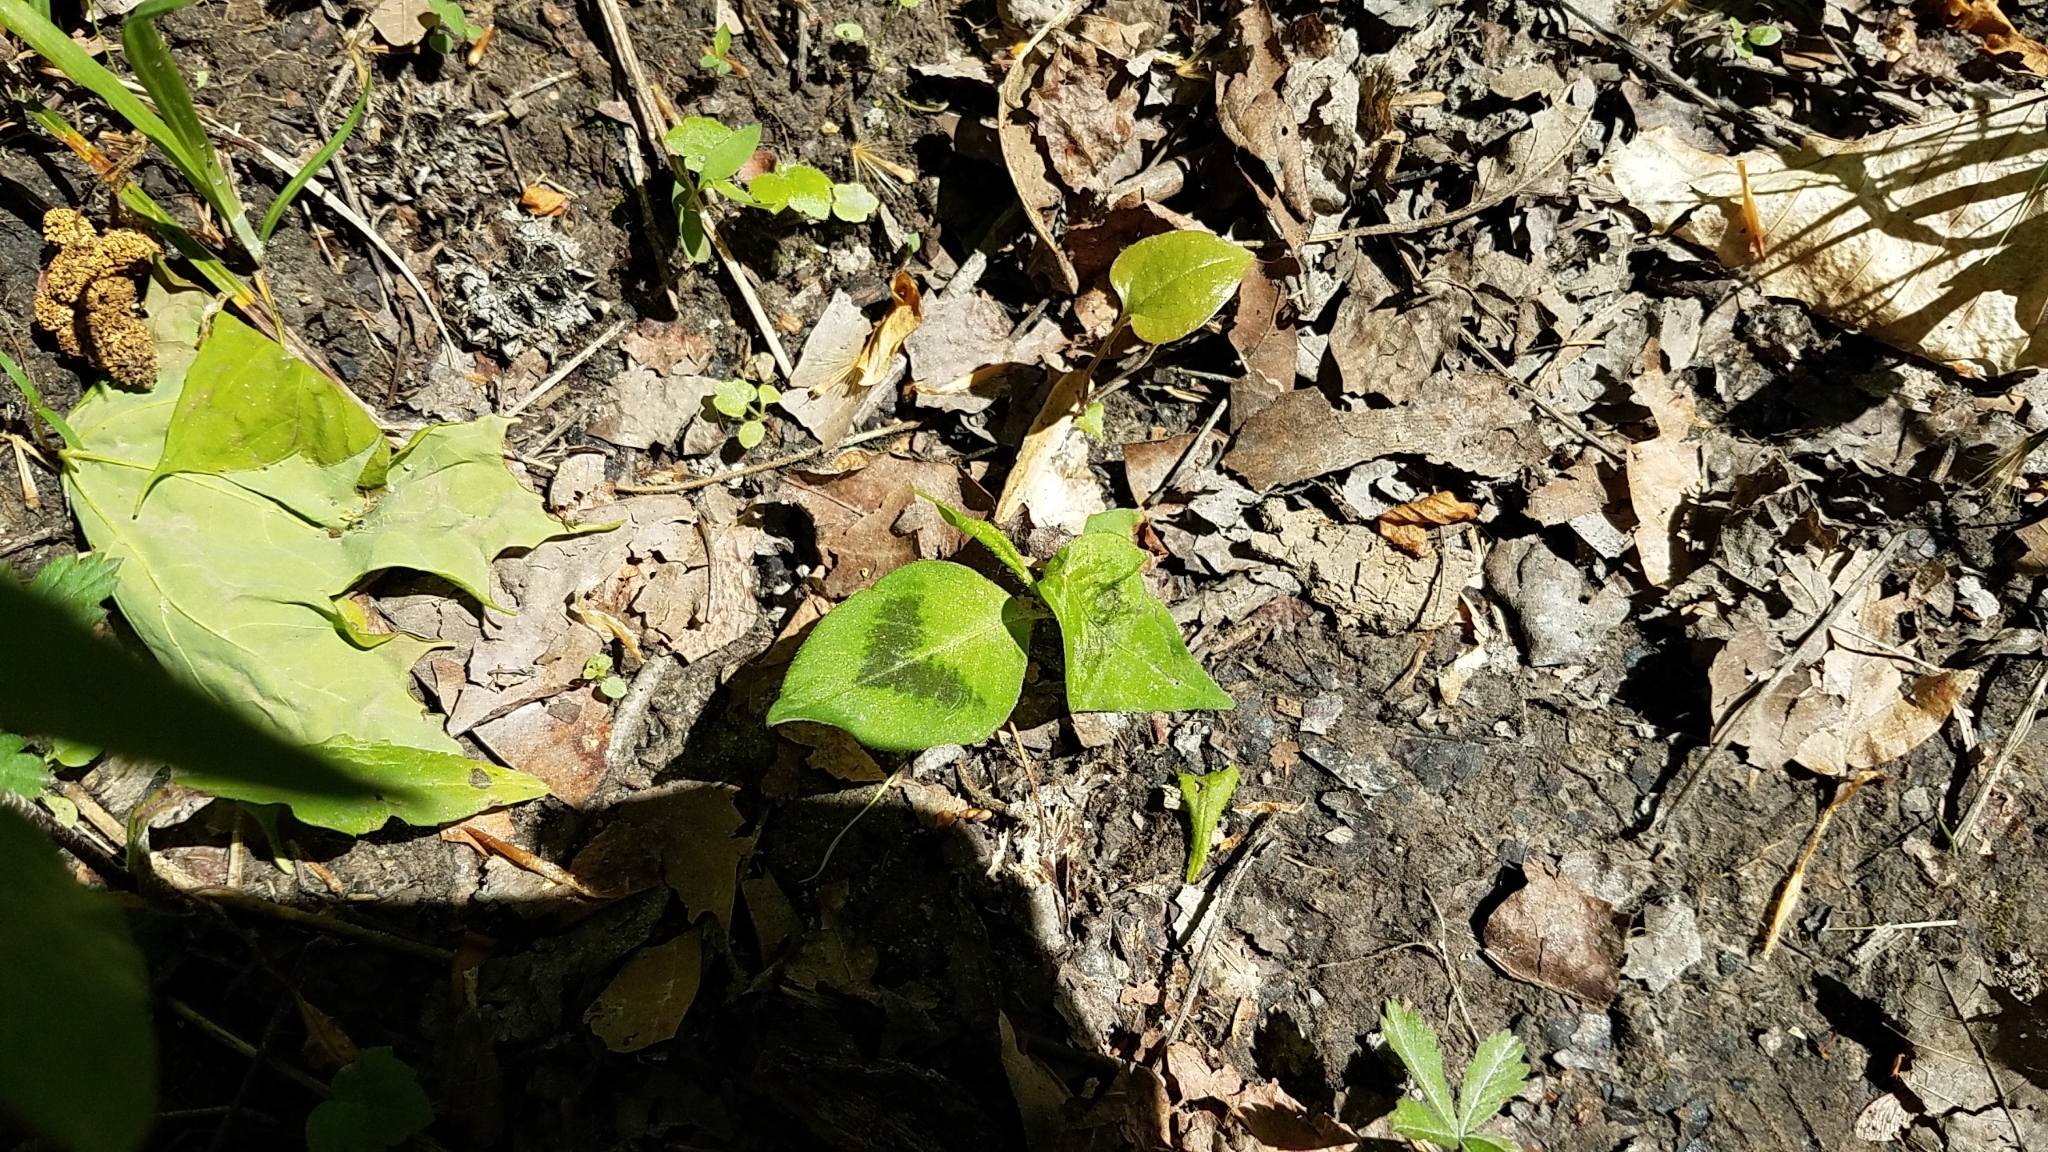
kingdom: Plantae
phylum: Tracheophyta
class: Magnoliopsida
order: Caryophyllales
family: Polygonaceae
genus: Persicaria
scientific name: Persicaria virginiana
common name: Jumpseed
